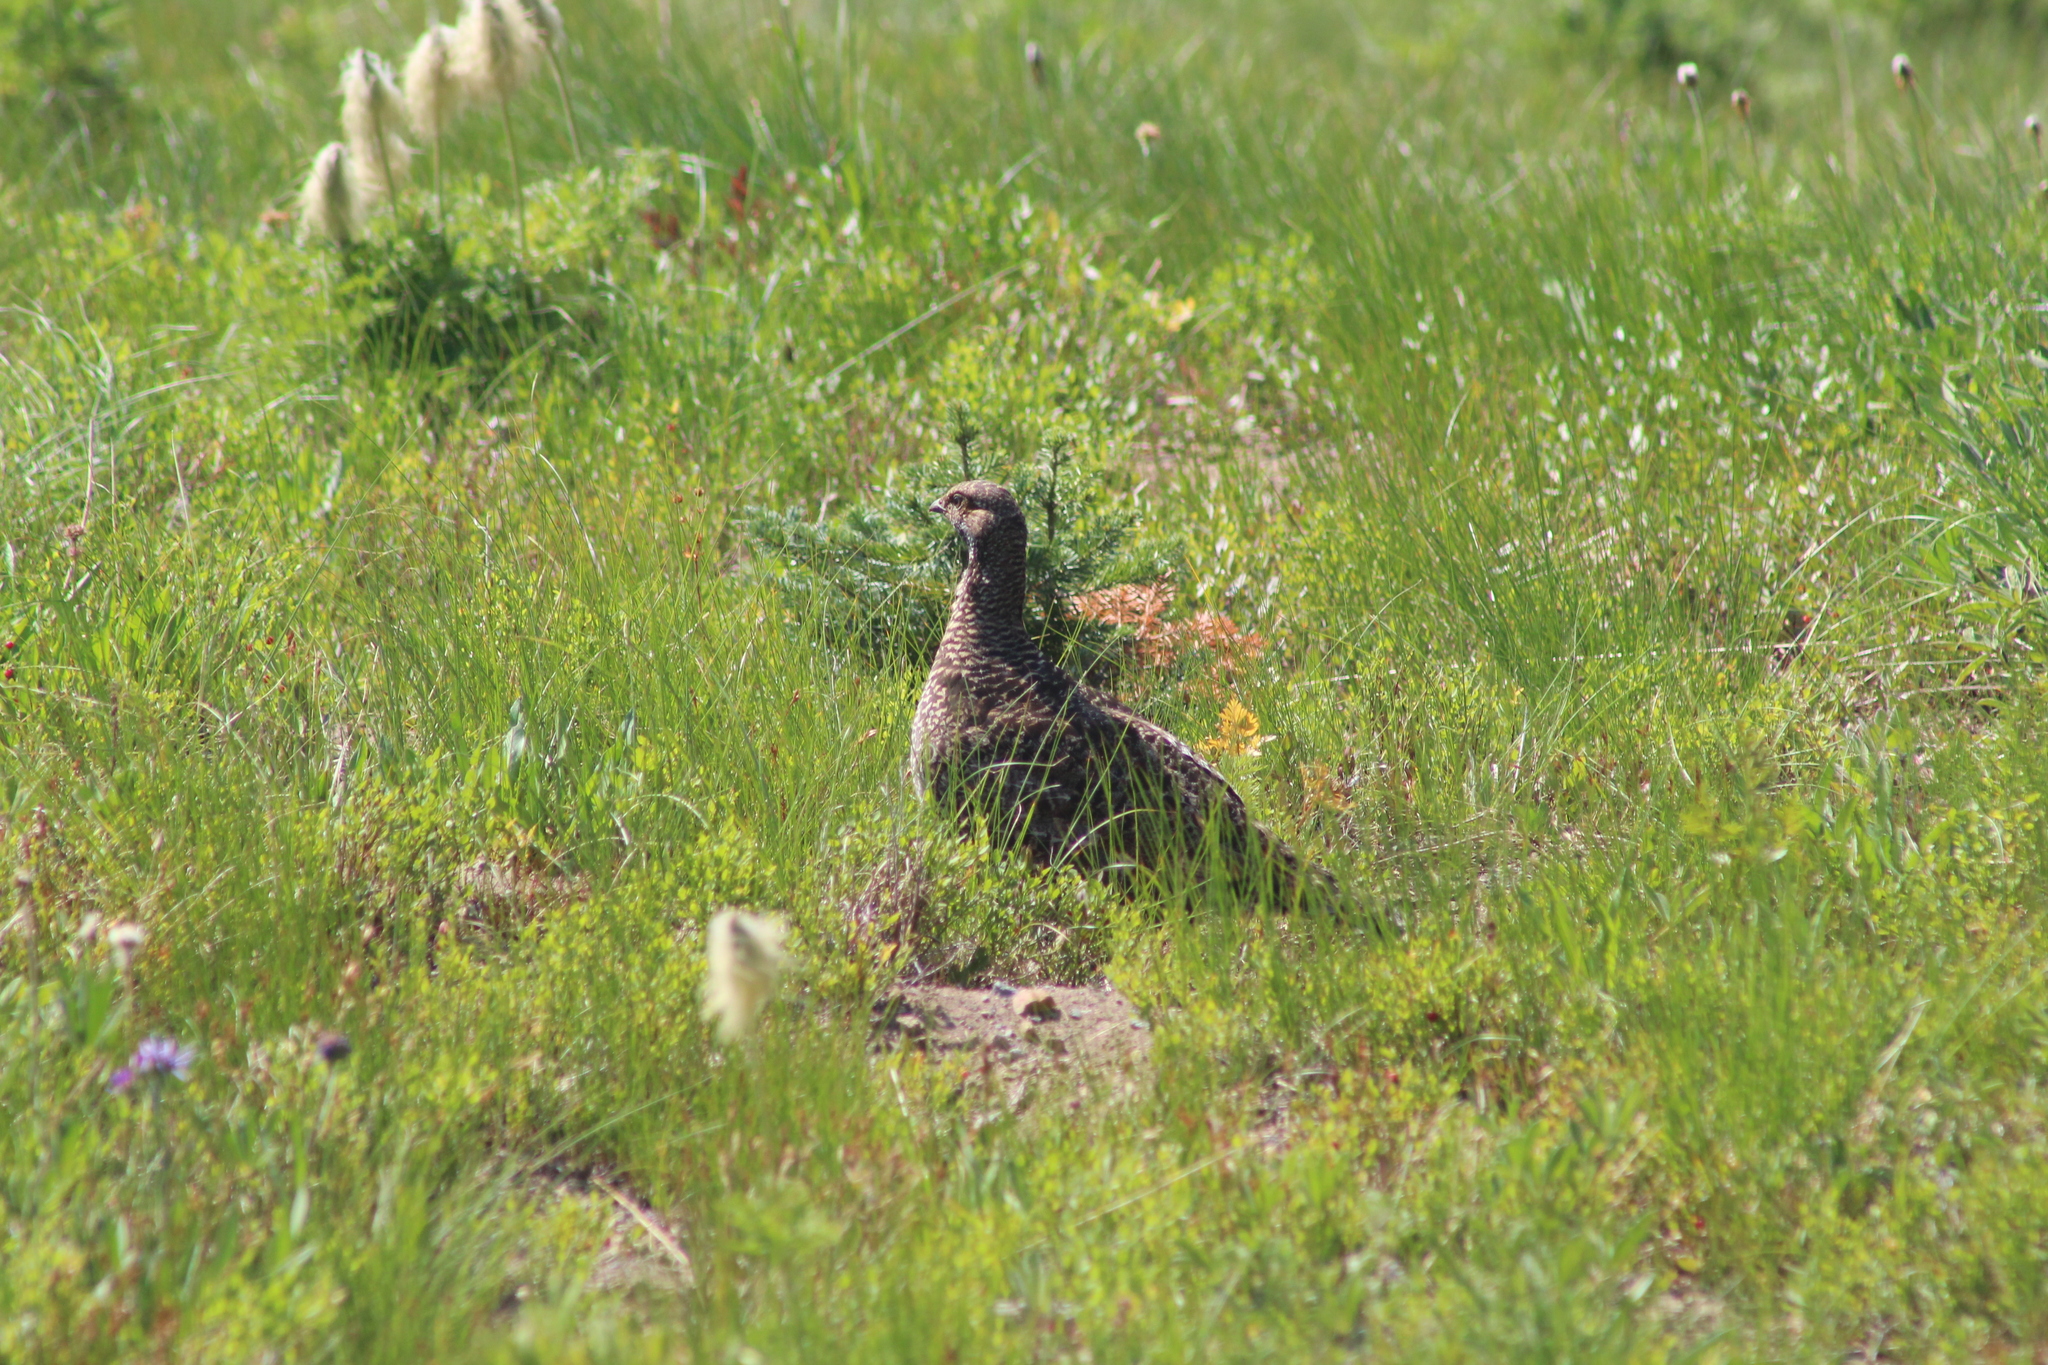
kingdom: Animalia
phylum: Chordata
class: Aves
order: Galliformes
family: Phasianidae
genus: Dendragapus
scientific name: Dendragapus fuliginosus
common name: Sooty grouse
